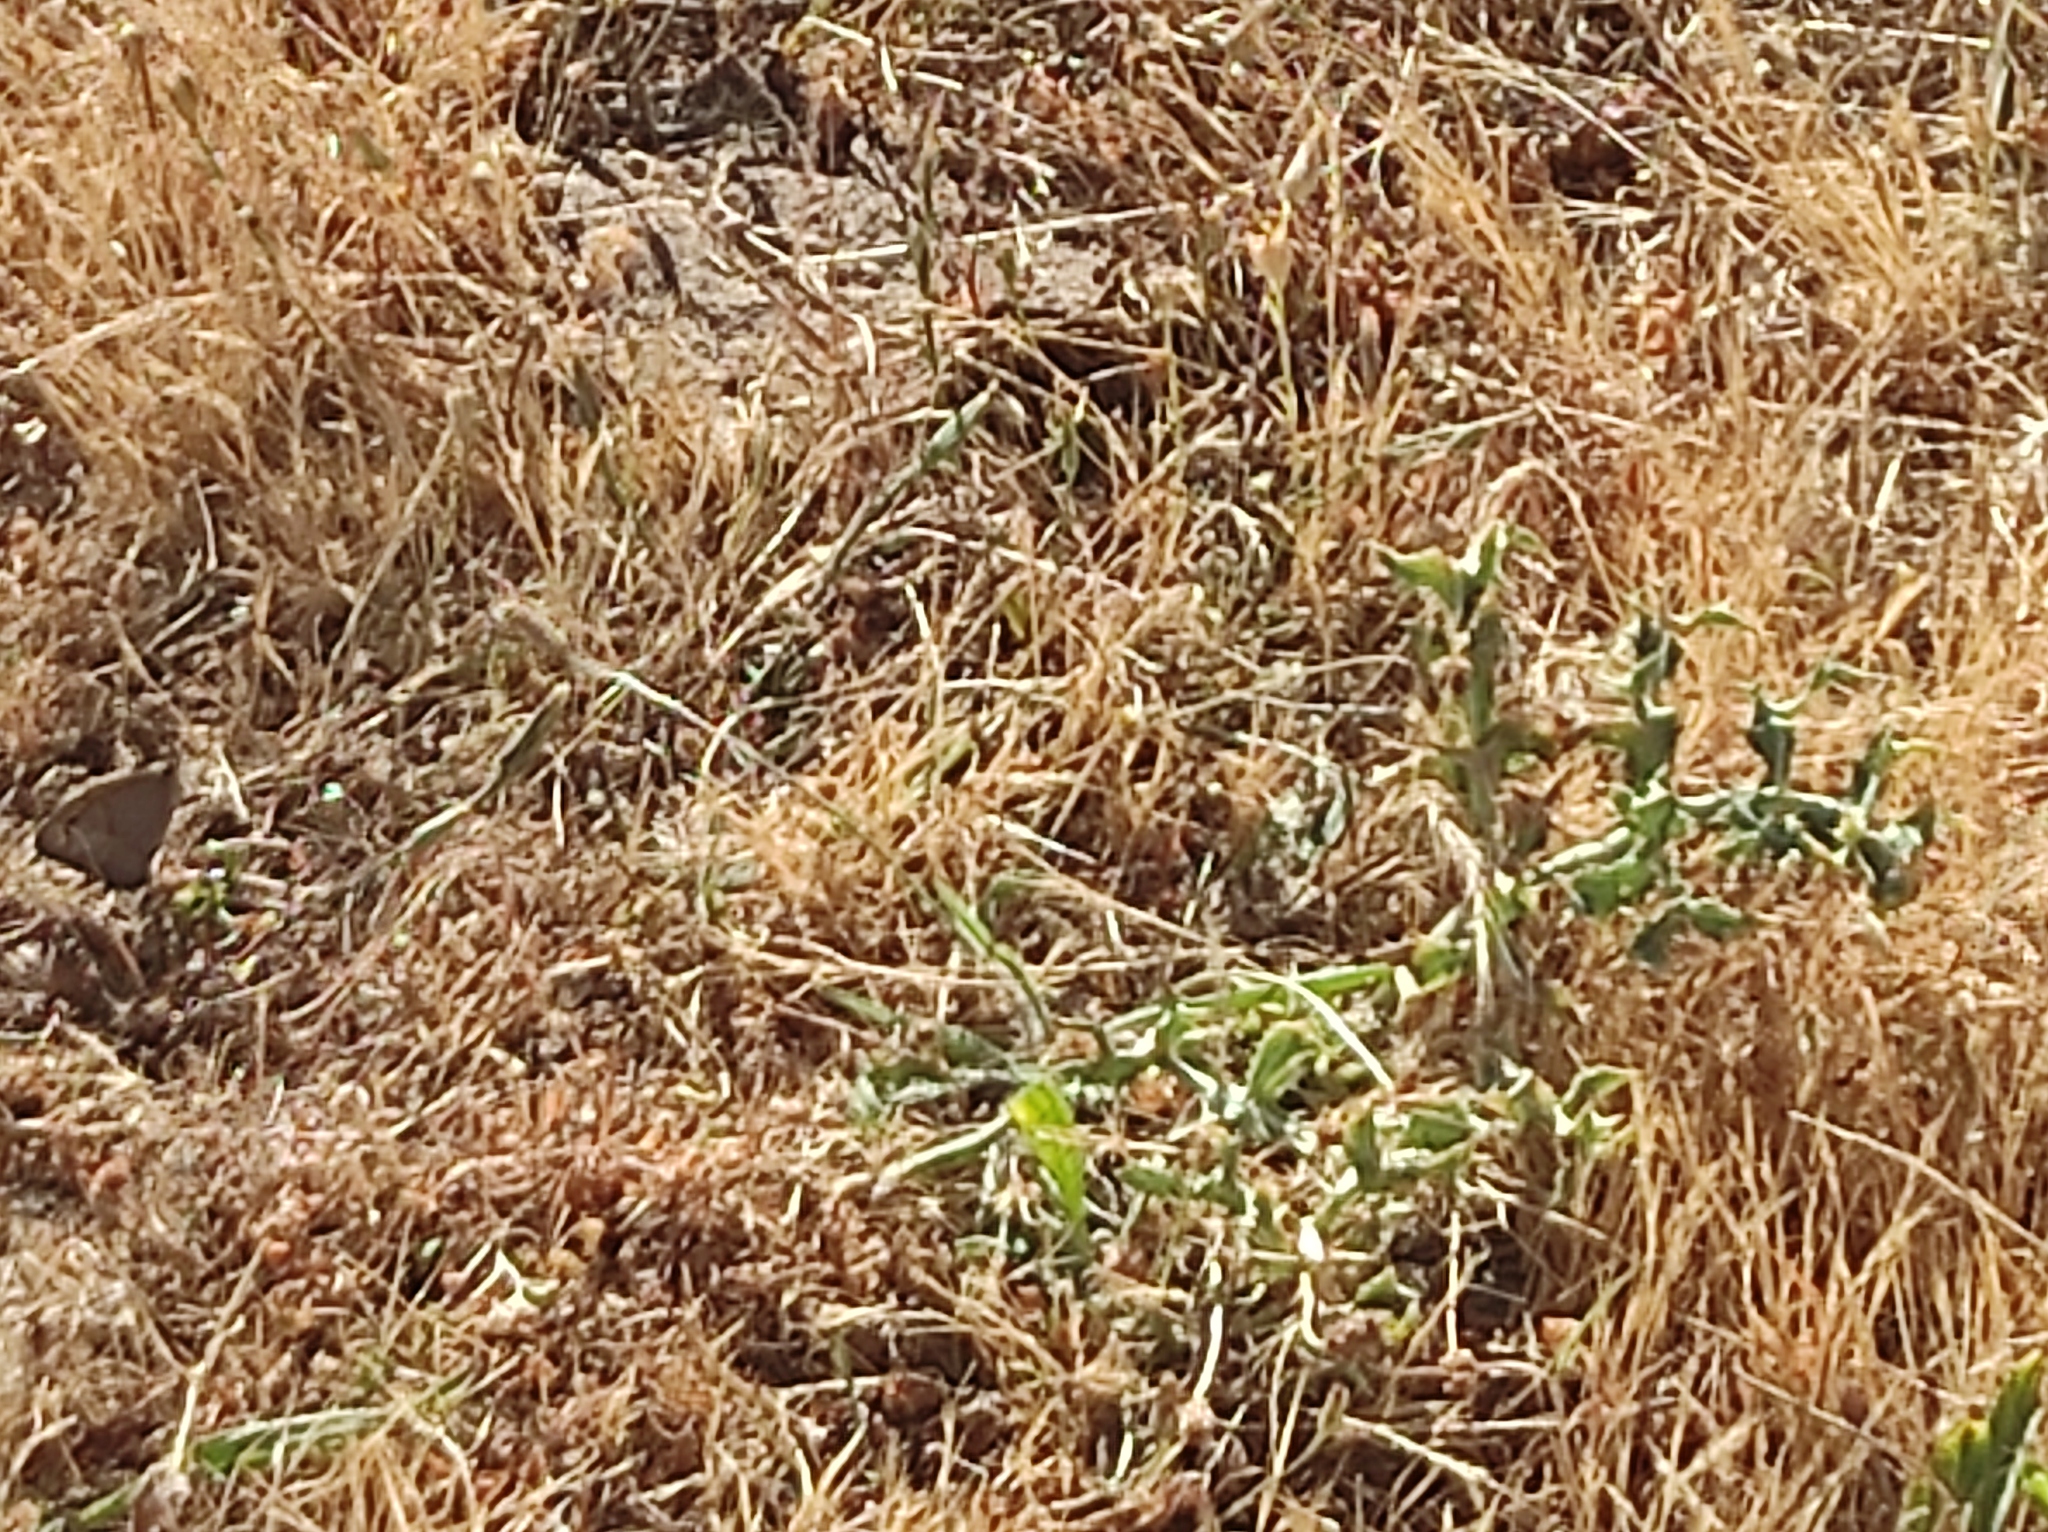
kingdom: Animalia
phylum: Arthropoda
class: Insecta
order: Lepidoptera
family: Nymphalidae
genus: Maniola
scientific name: Maniola jurtina
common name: Meadow brown
